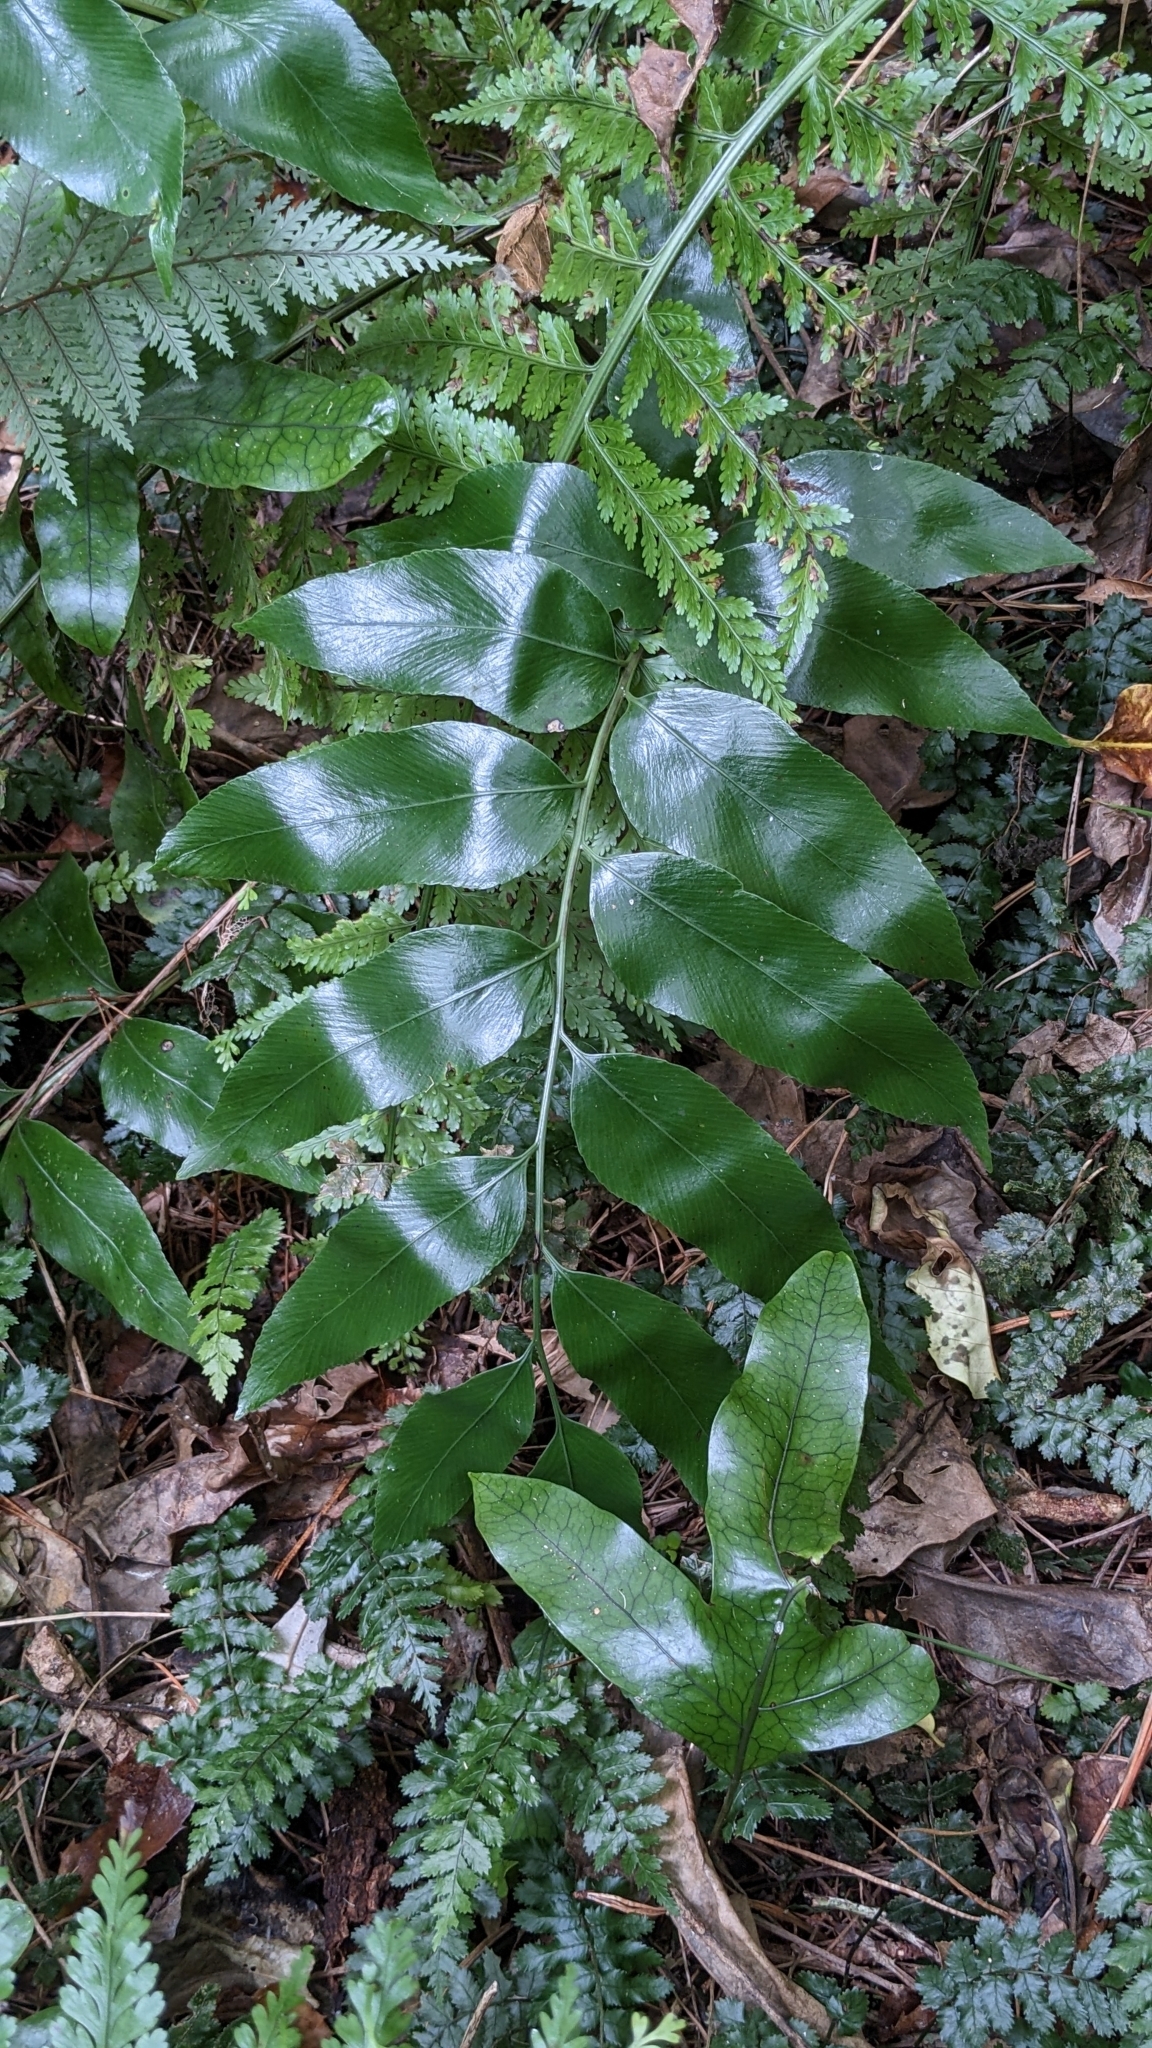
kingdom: Plantae
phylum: Tracheophyta
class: Polypodiopsida
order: Polypodiales
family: Aspleniaceae
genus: Asplenium
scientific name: Asplenium oblongifolium
